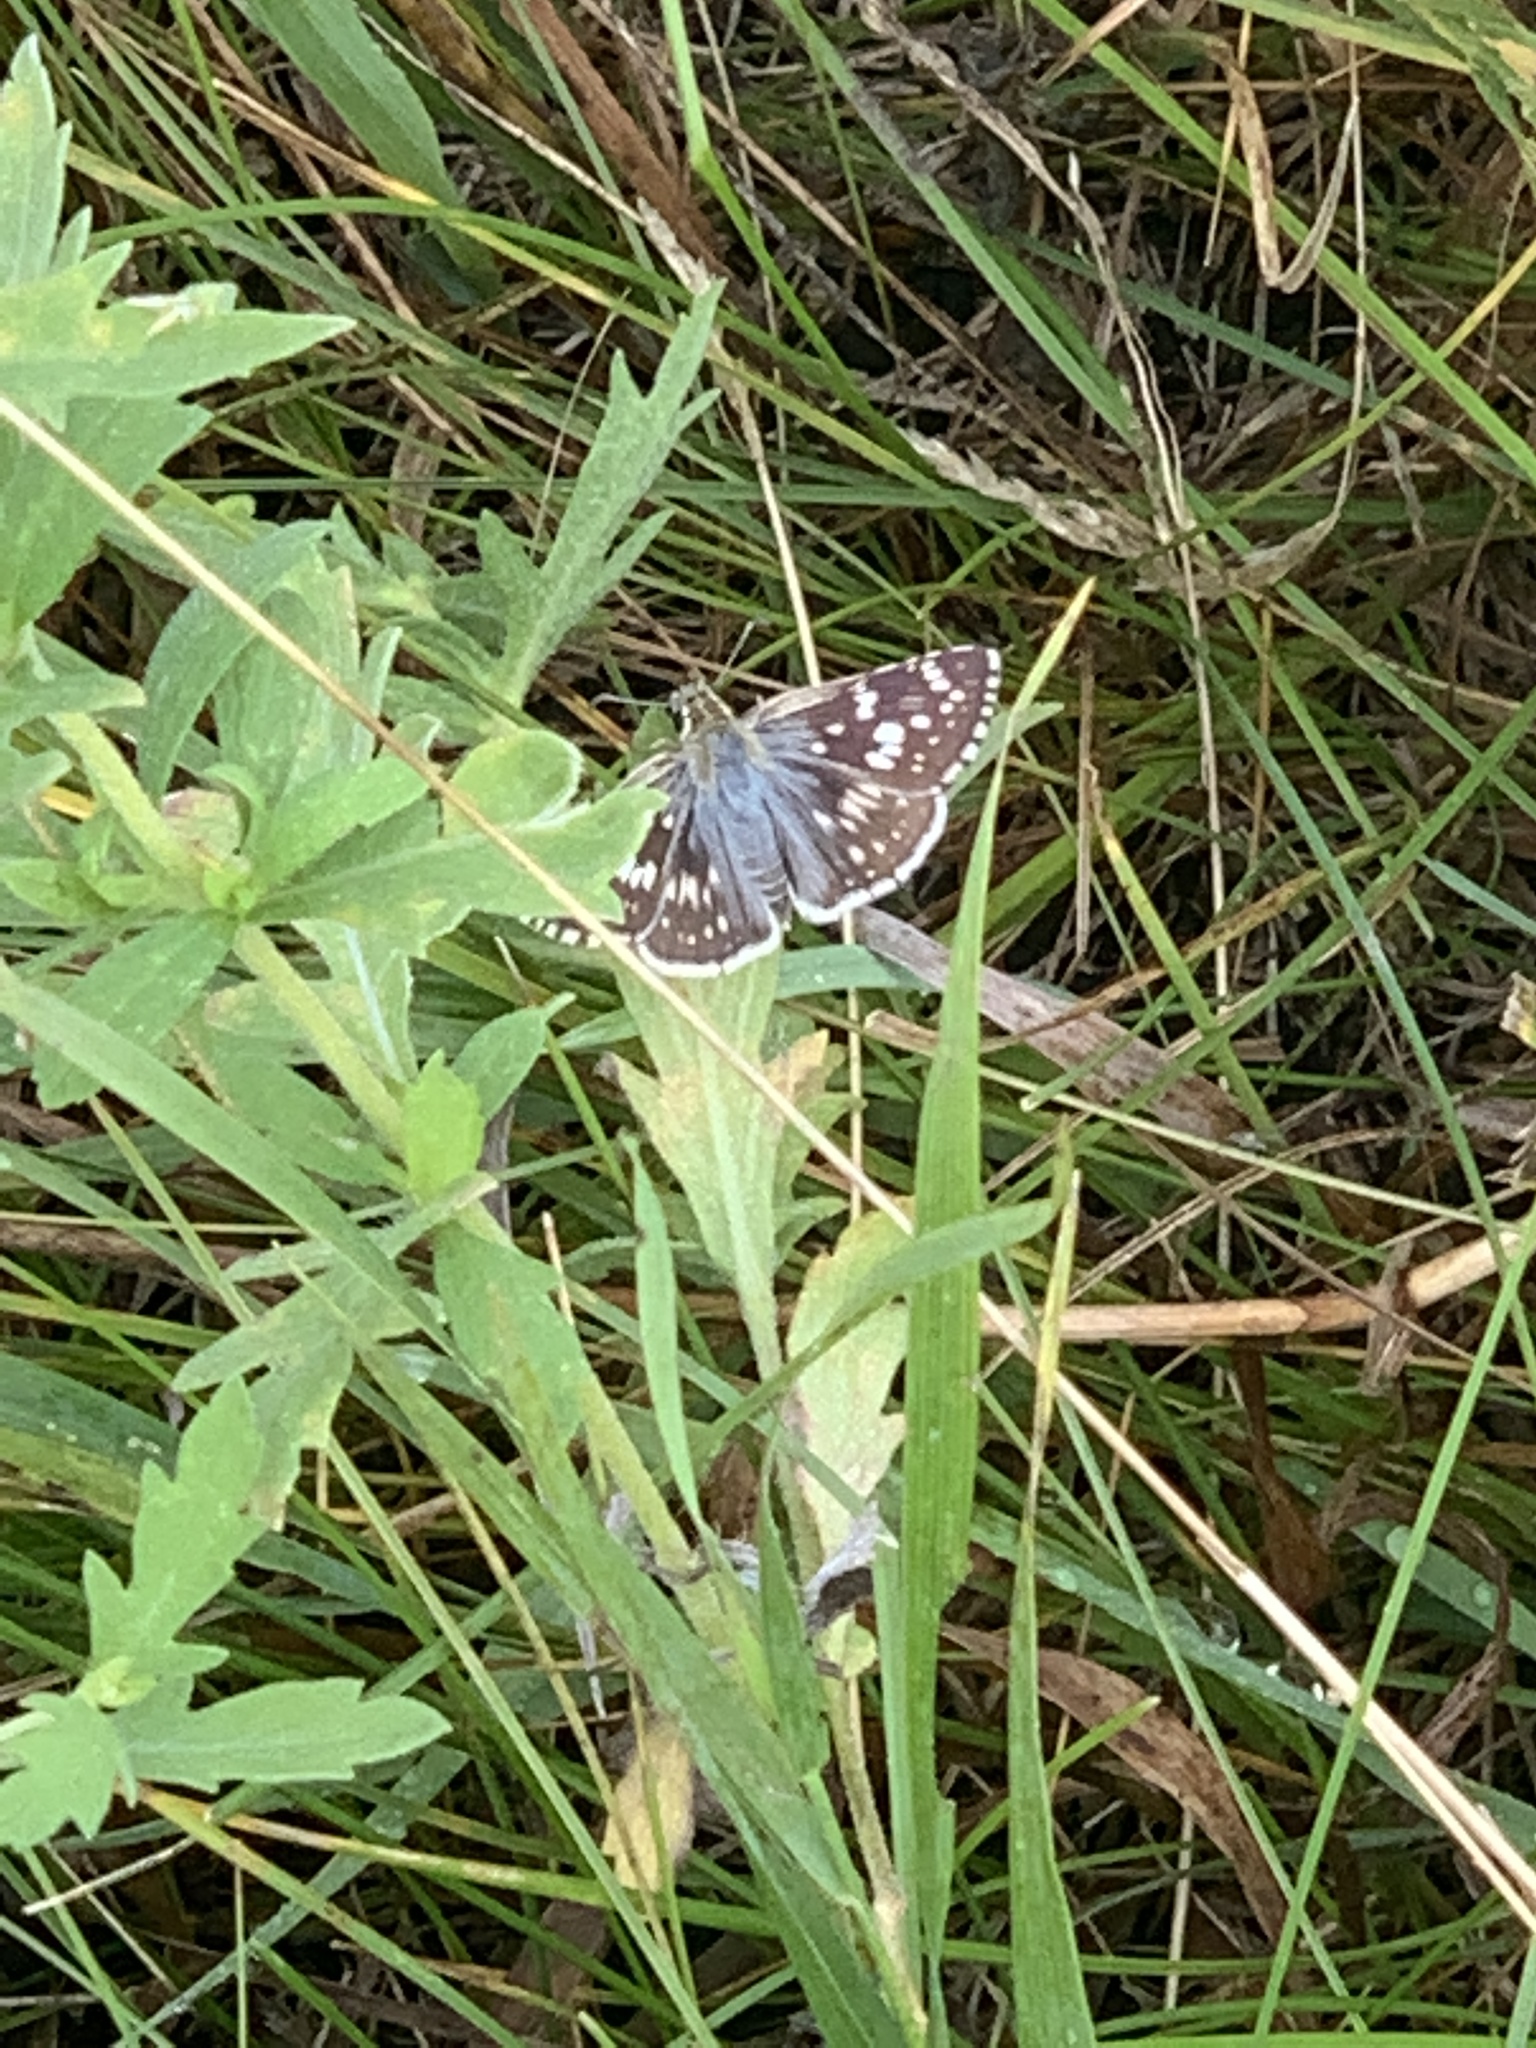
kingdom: Animalia
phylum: Arthropoda
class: Insecta
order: Lepidoptera
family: Hesperiidae
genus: Burnsius
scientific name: Burnsius communis
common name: Common checkered-skipper
